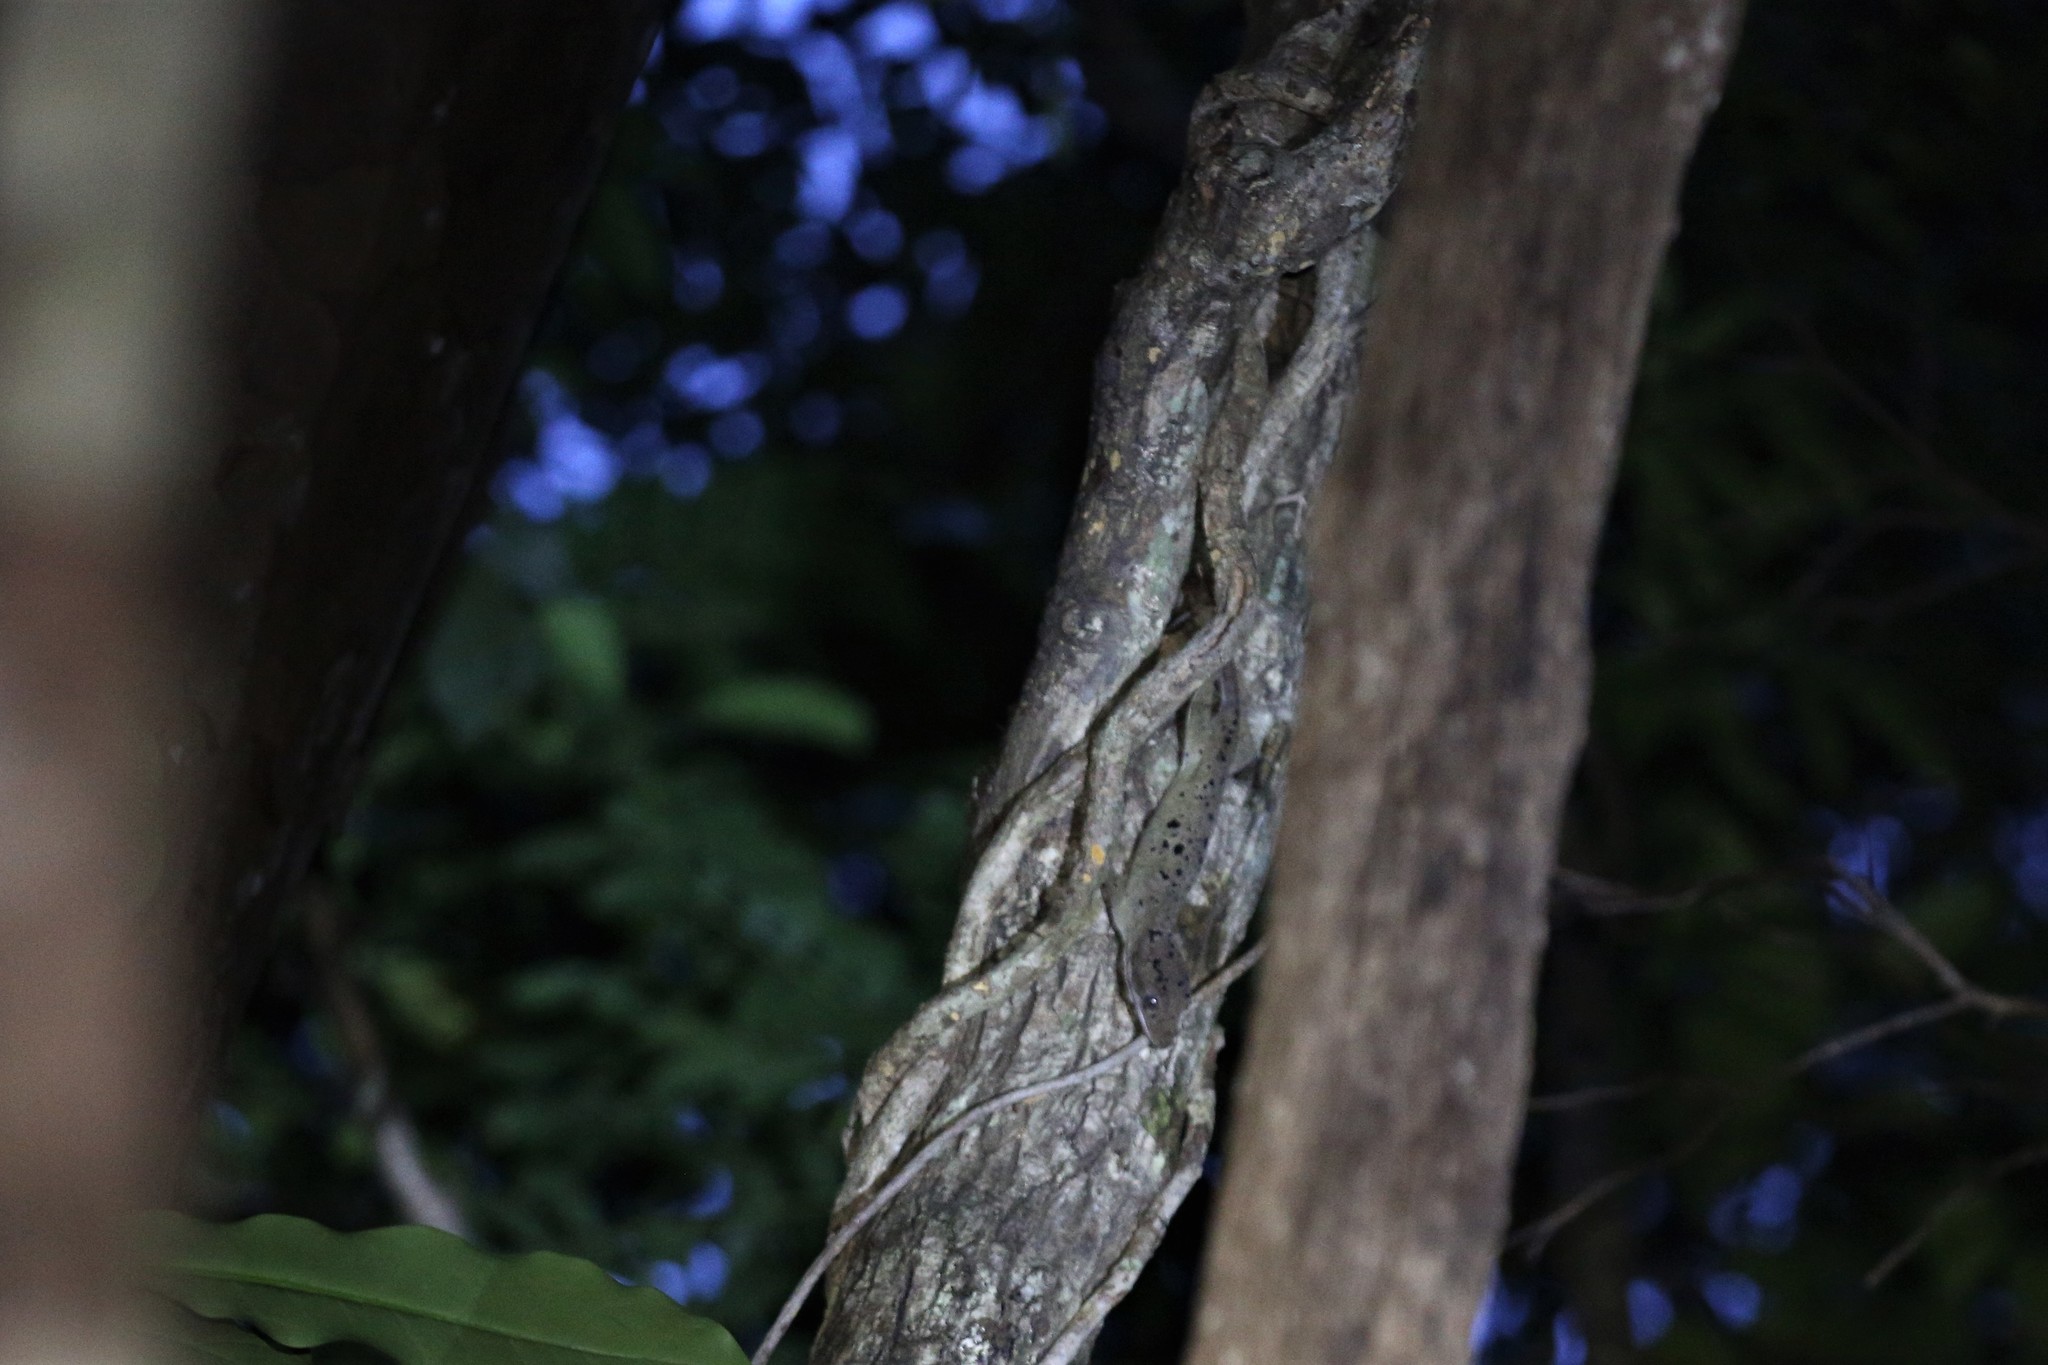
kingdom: Animalia
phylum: Chordata
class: Squamata
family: Diplodactylidae
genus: Correlophus
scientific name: Correlophus sarasinorum
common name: Roux's giant gecko
